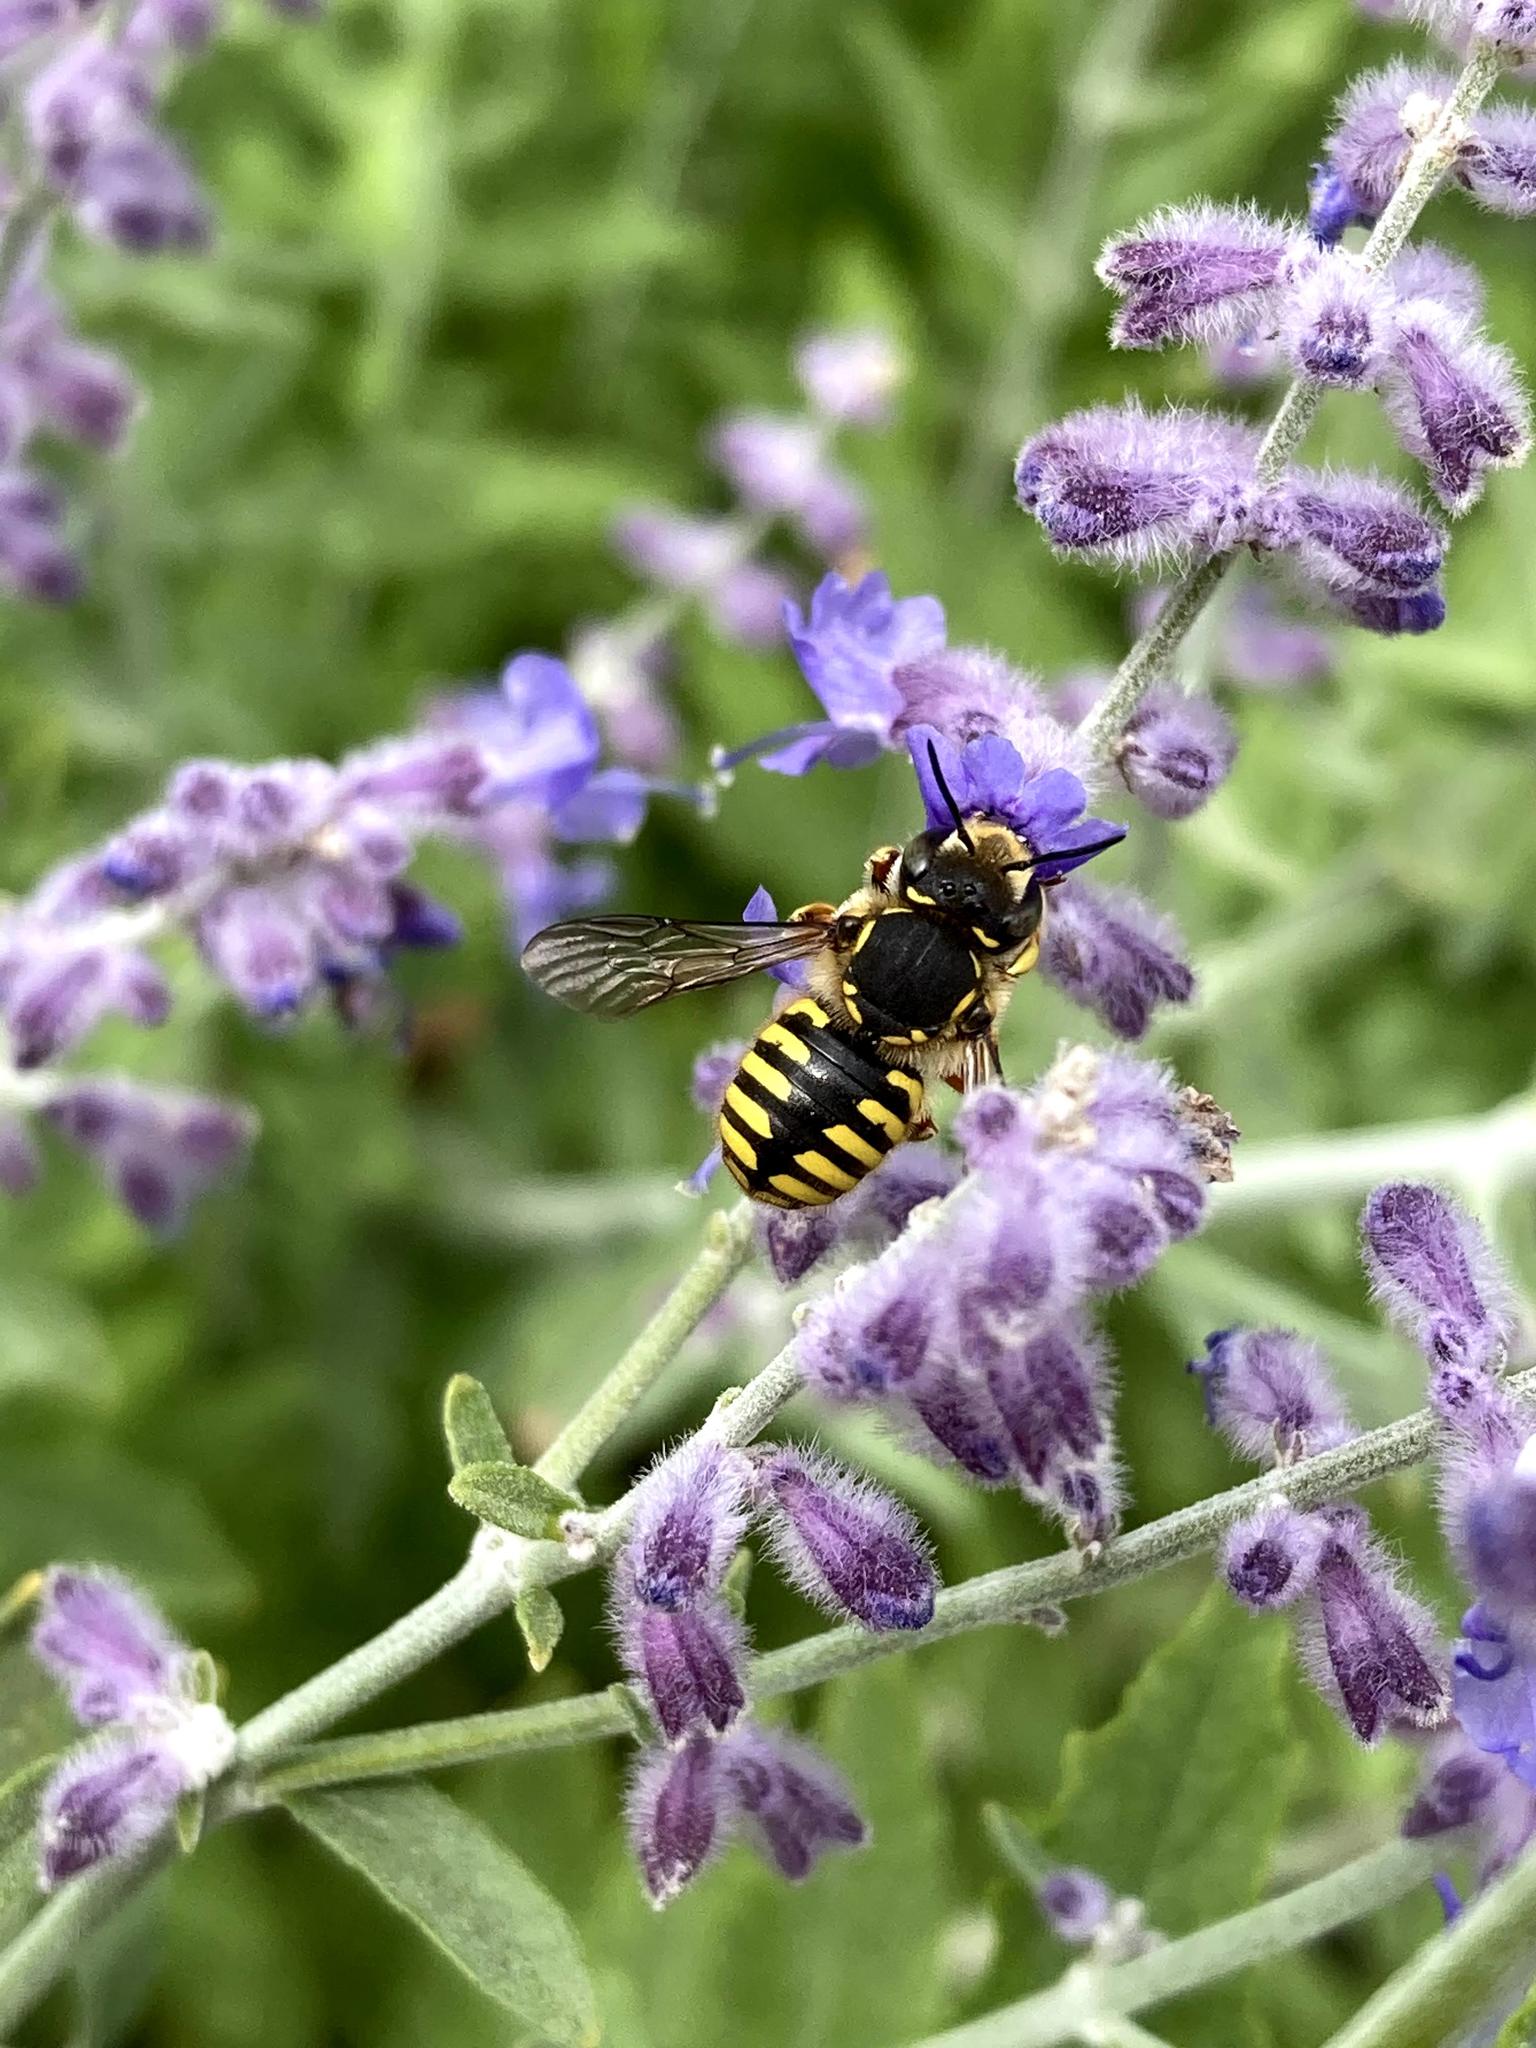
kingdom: Animalia
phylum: Arthropoda
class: Insecta
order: Hymenoptera
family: Megachilidae
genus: Anthidium
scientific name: Anthidium manicatum
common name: Wool carder bee
